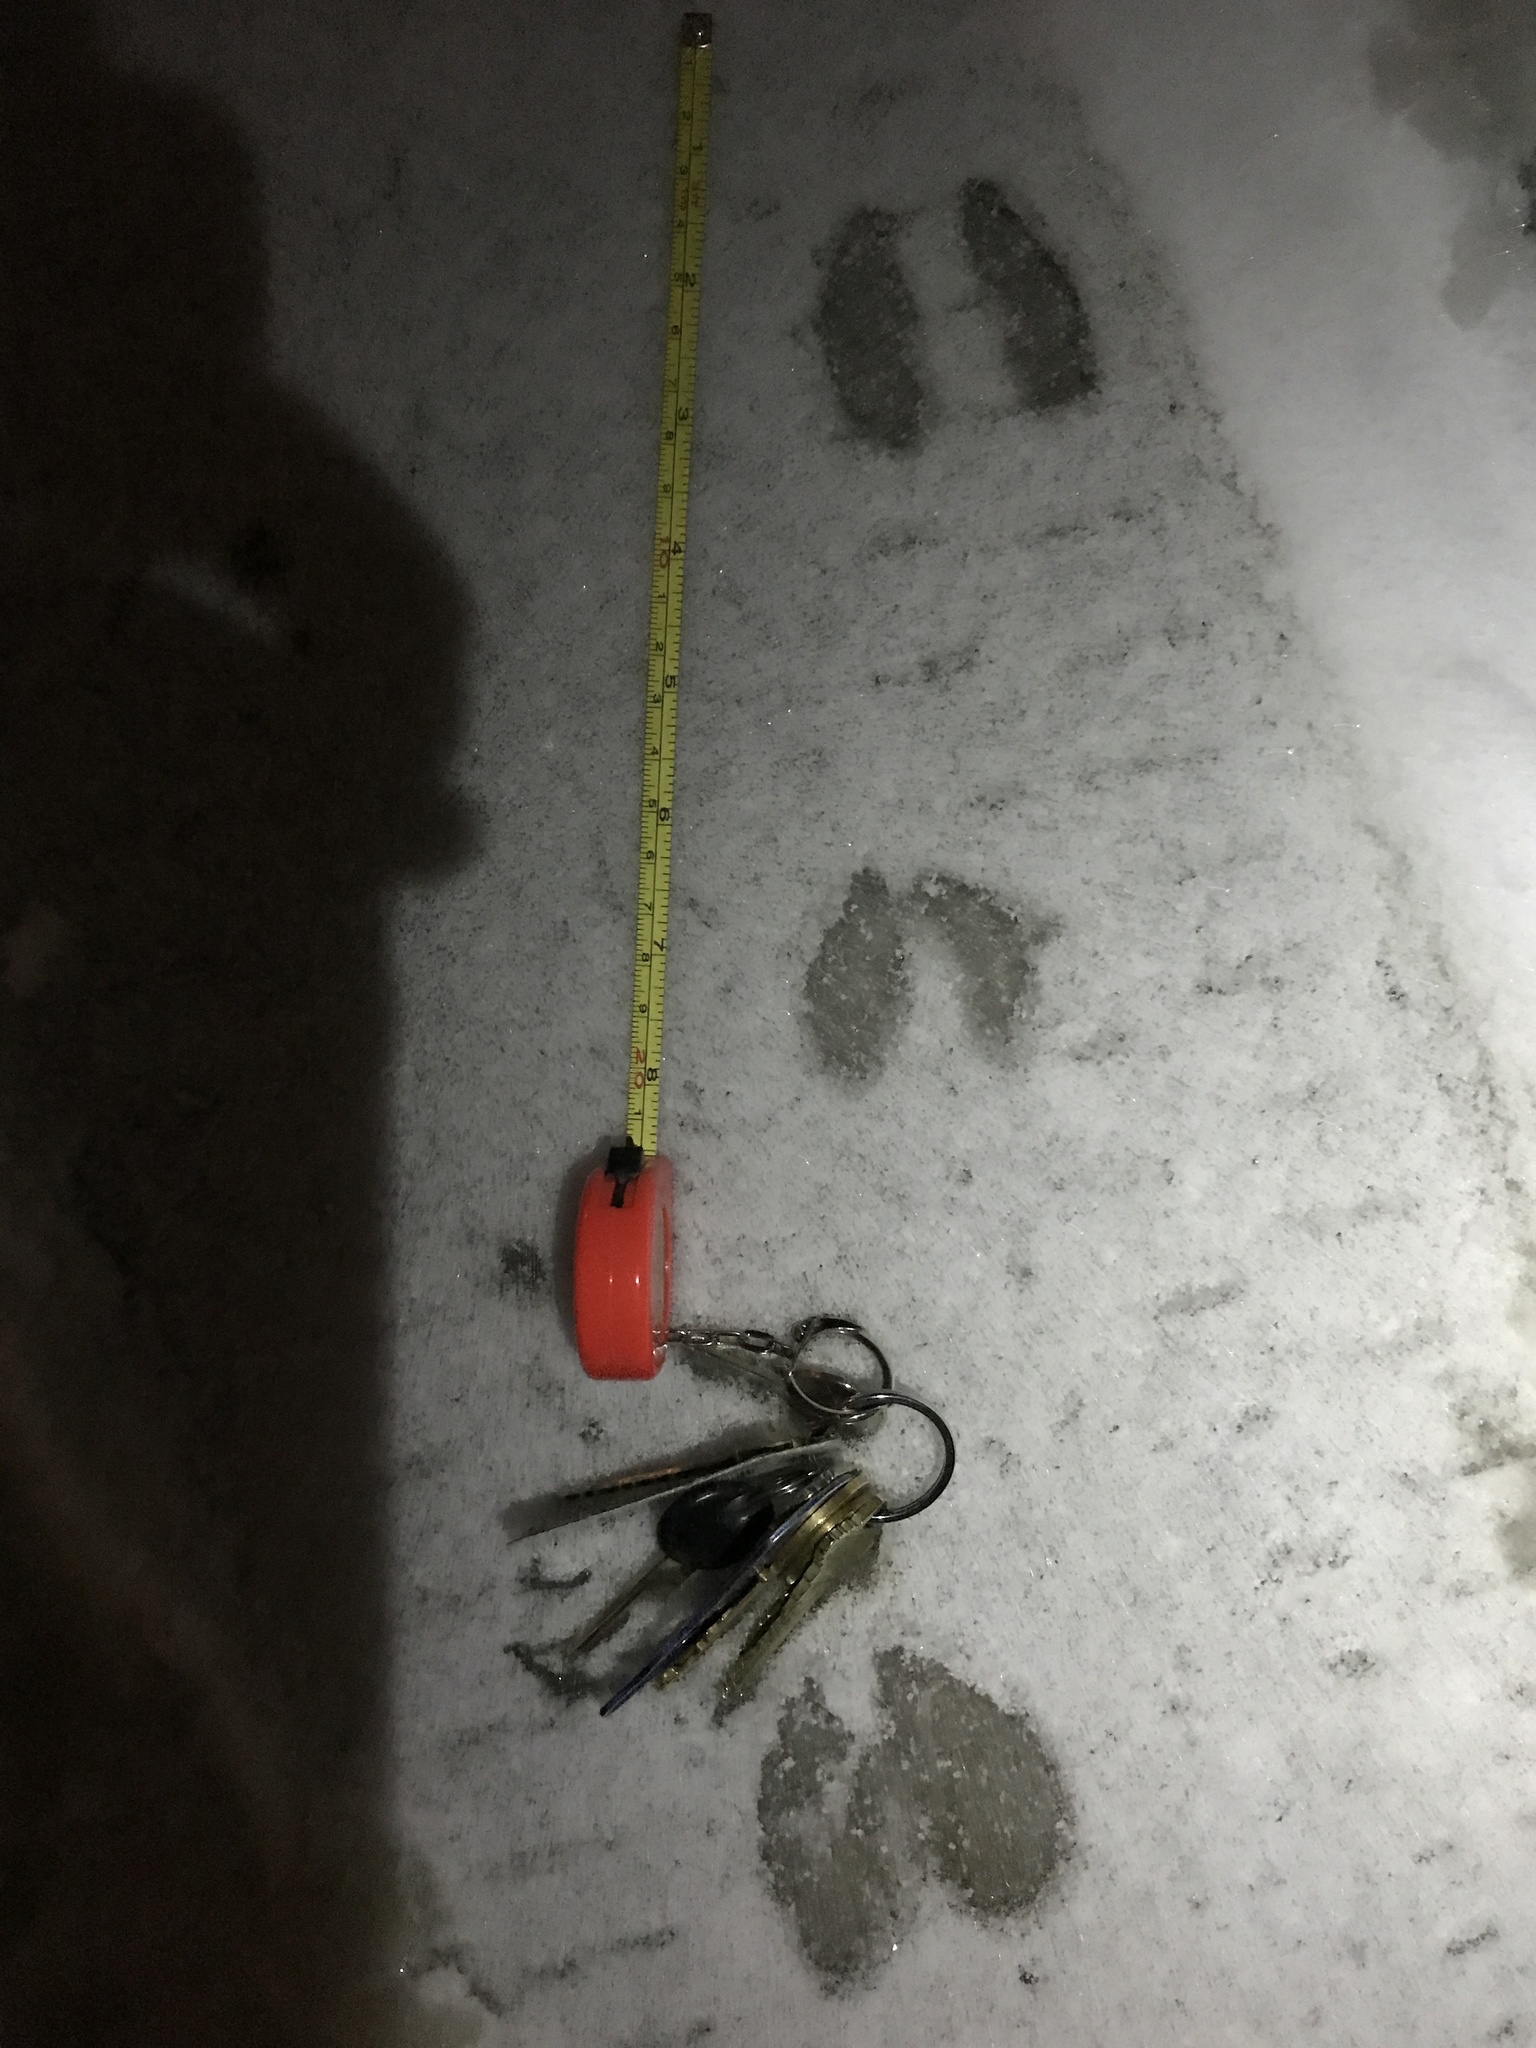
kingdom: Animalia
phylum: Chordata
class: Mammalia
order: Artiodactyla
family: Cervidae
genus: Odocoileus
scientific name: Odocoileus virginianus
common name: White-tailed deer
